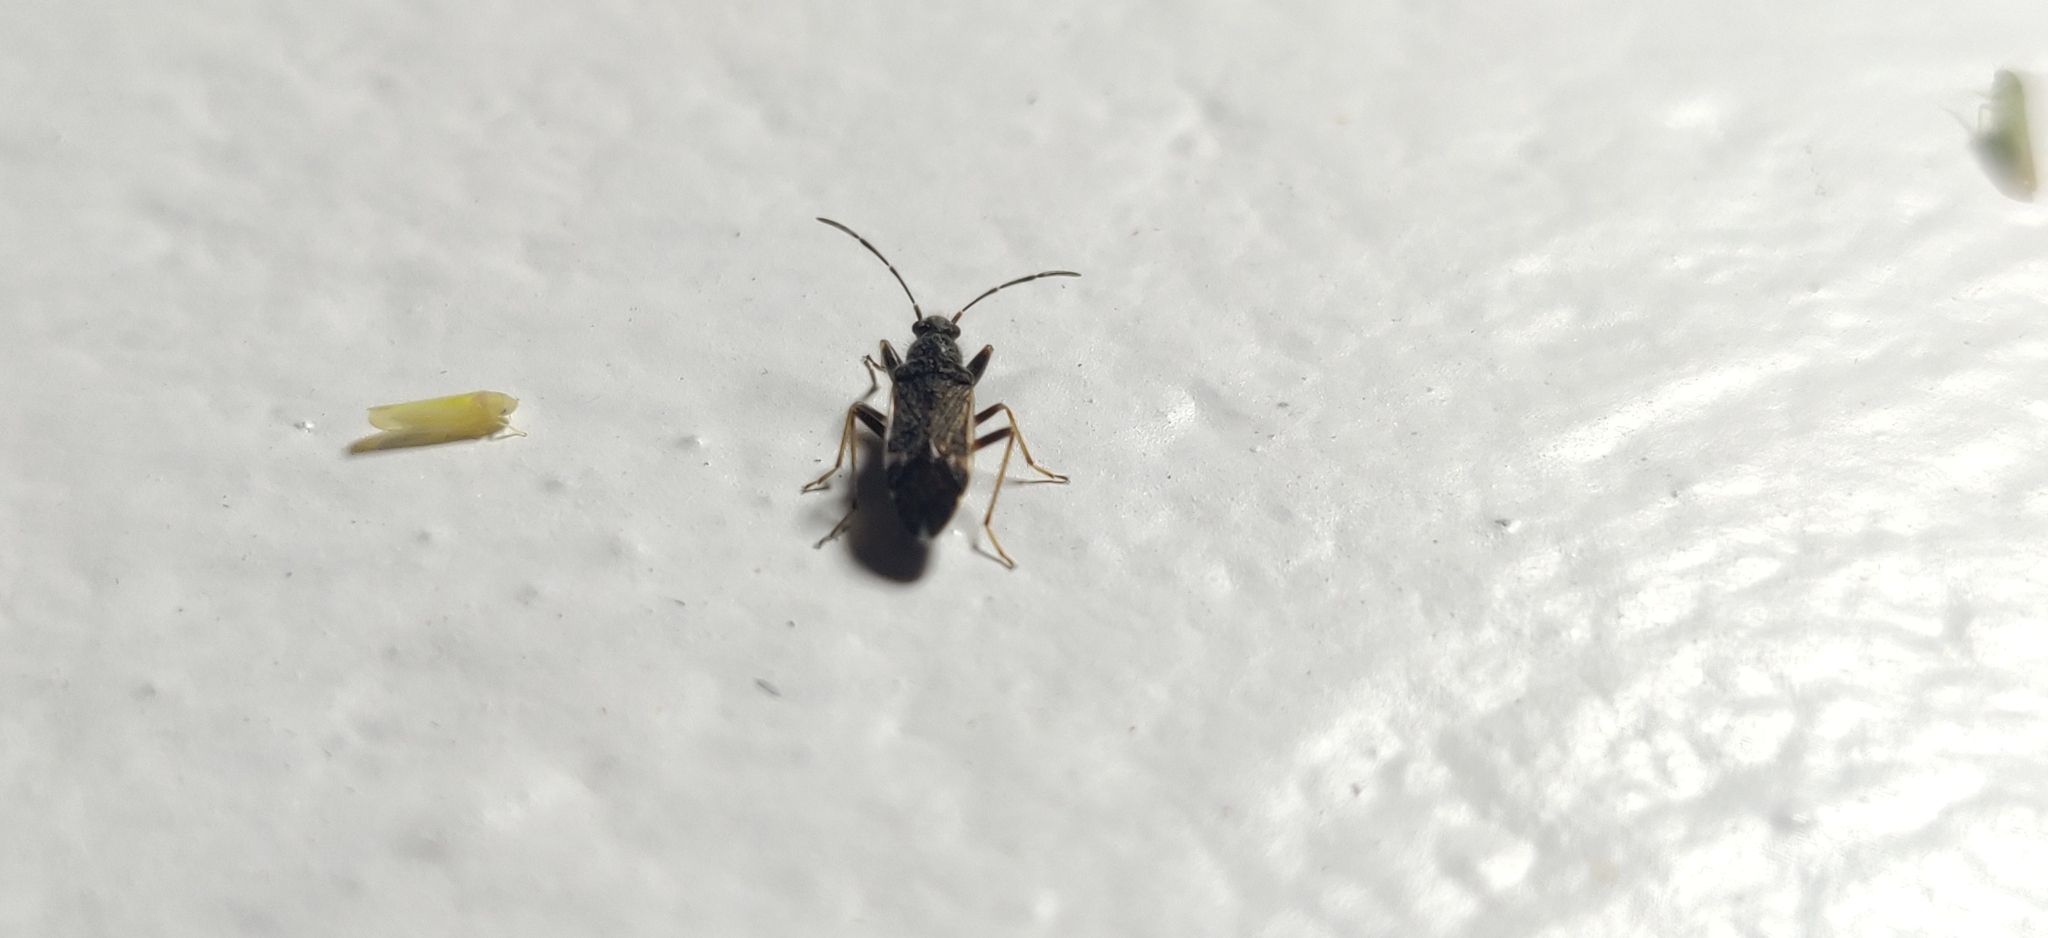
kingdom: Animalia
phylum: Arthropoda
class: Insecta
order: Hemiptera
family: Rhyparochromidae
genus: Horridipamera
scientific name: Horridipamera nietneri
